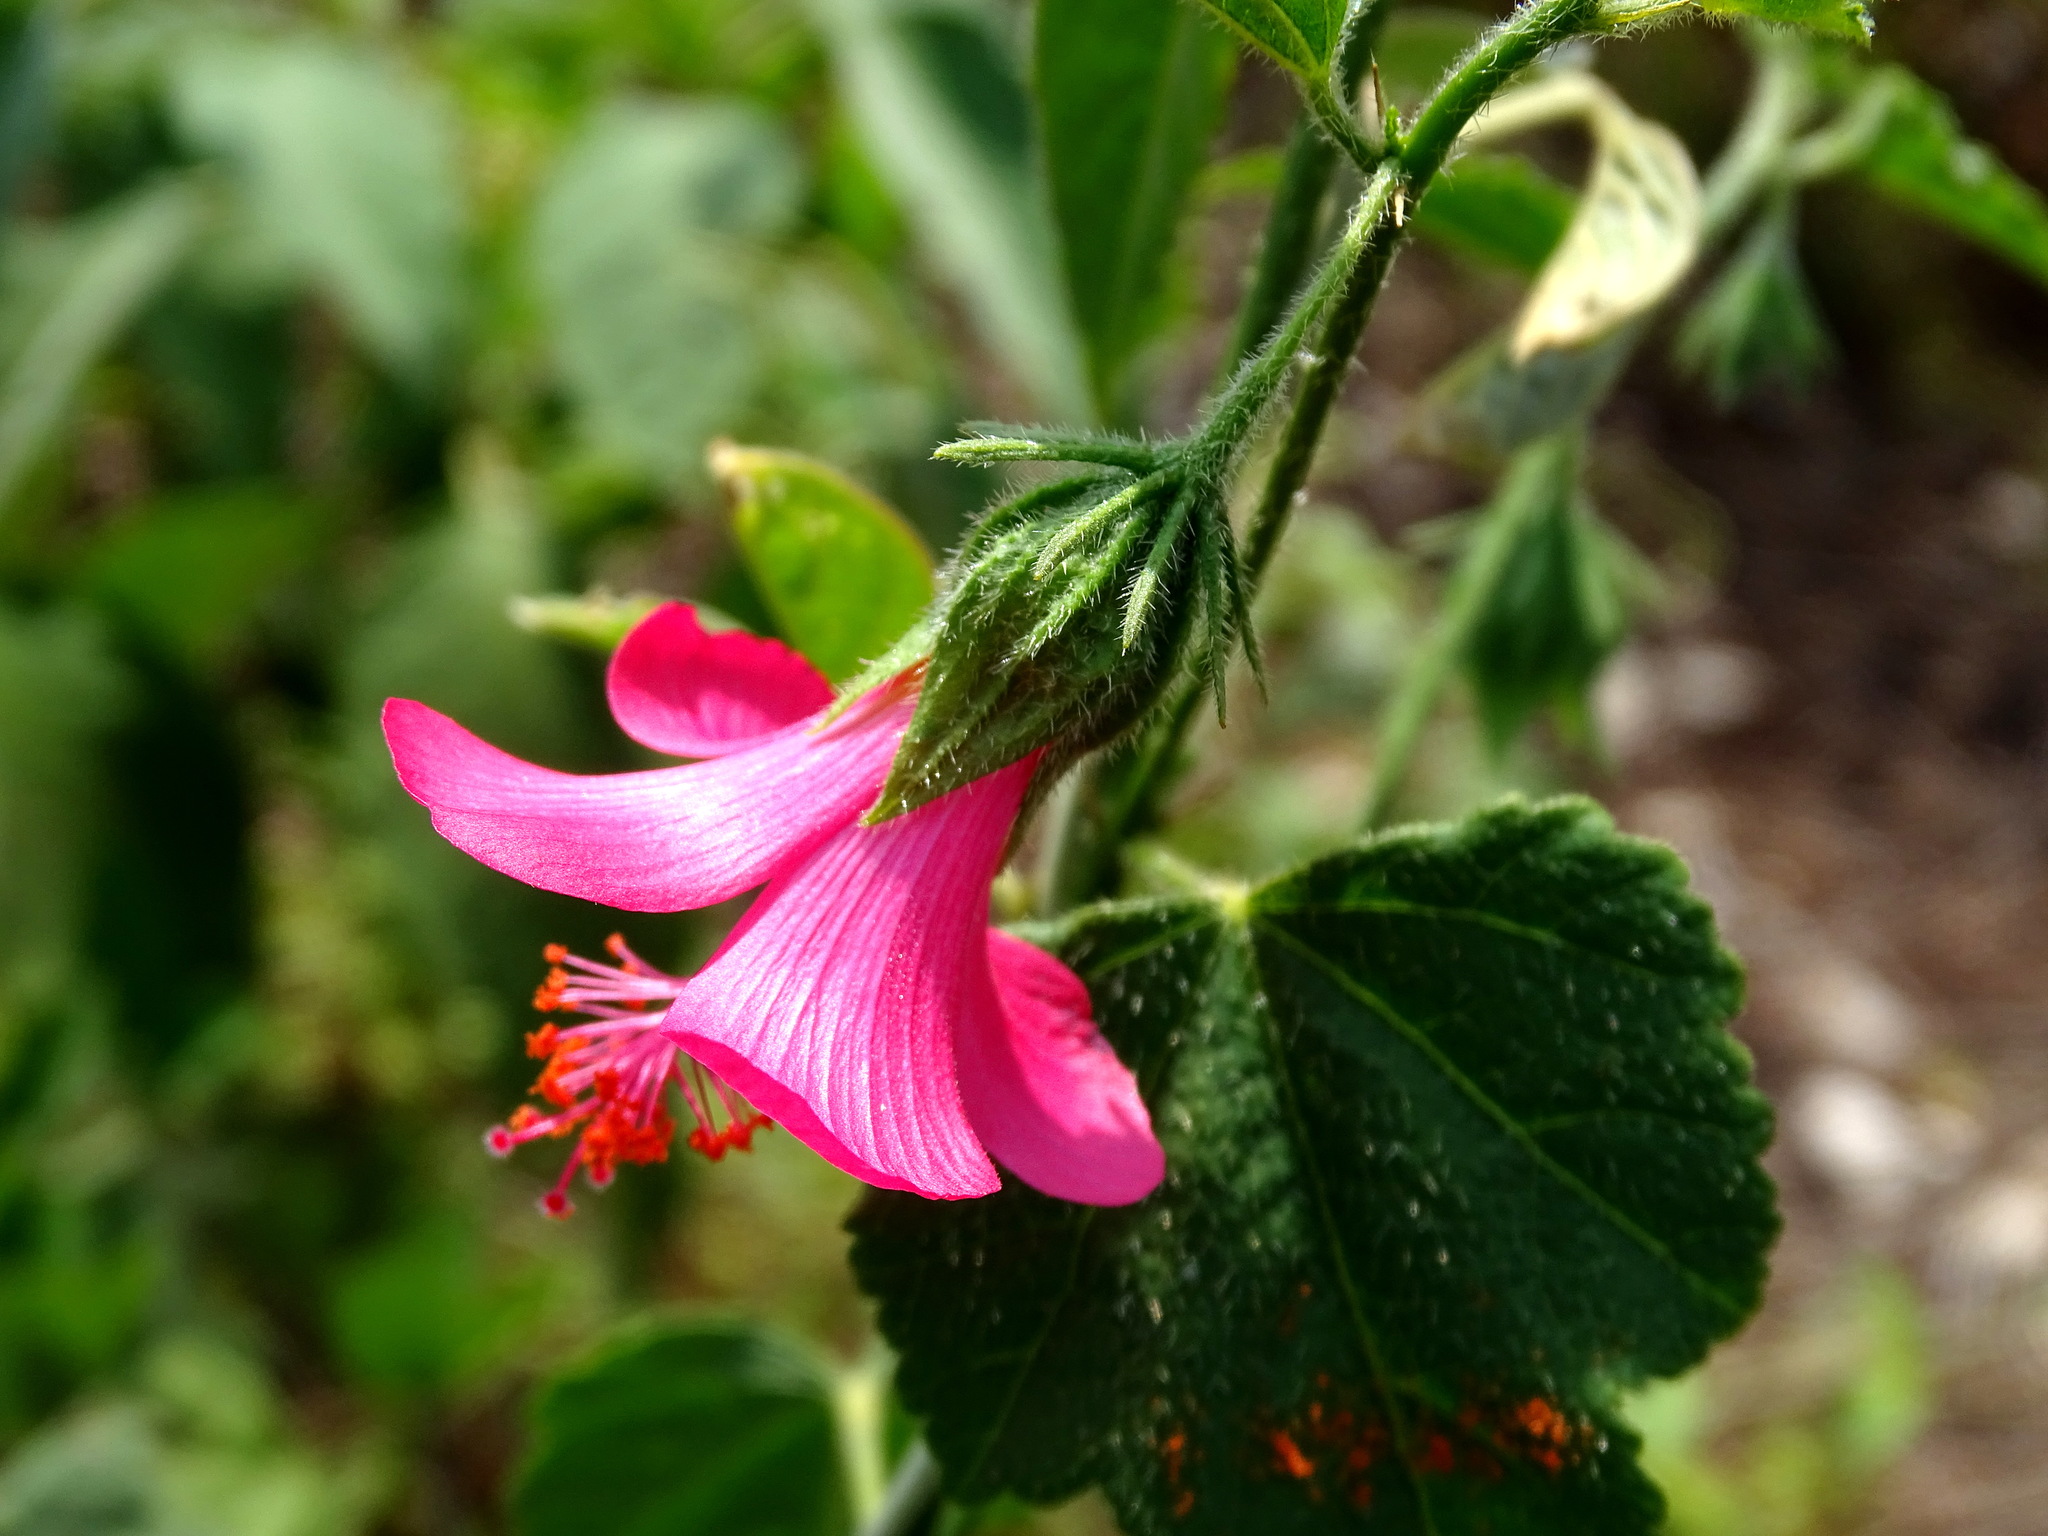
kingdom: Plantae
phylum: Tracheophyta
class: Magnoliopsida
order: Malvales
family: Malvaceae
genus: Hibiscus
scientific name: Hibiscus poeppigii
